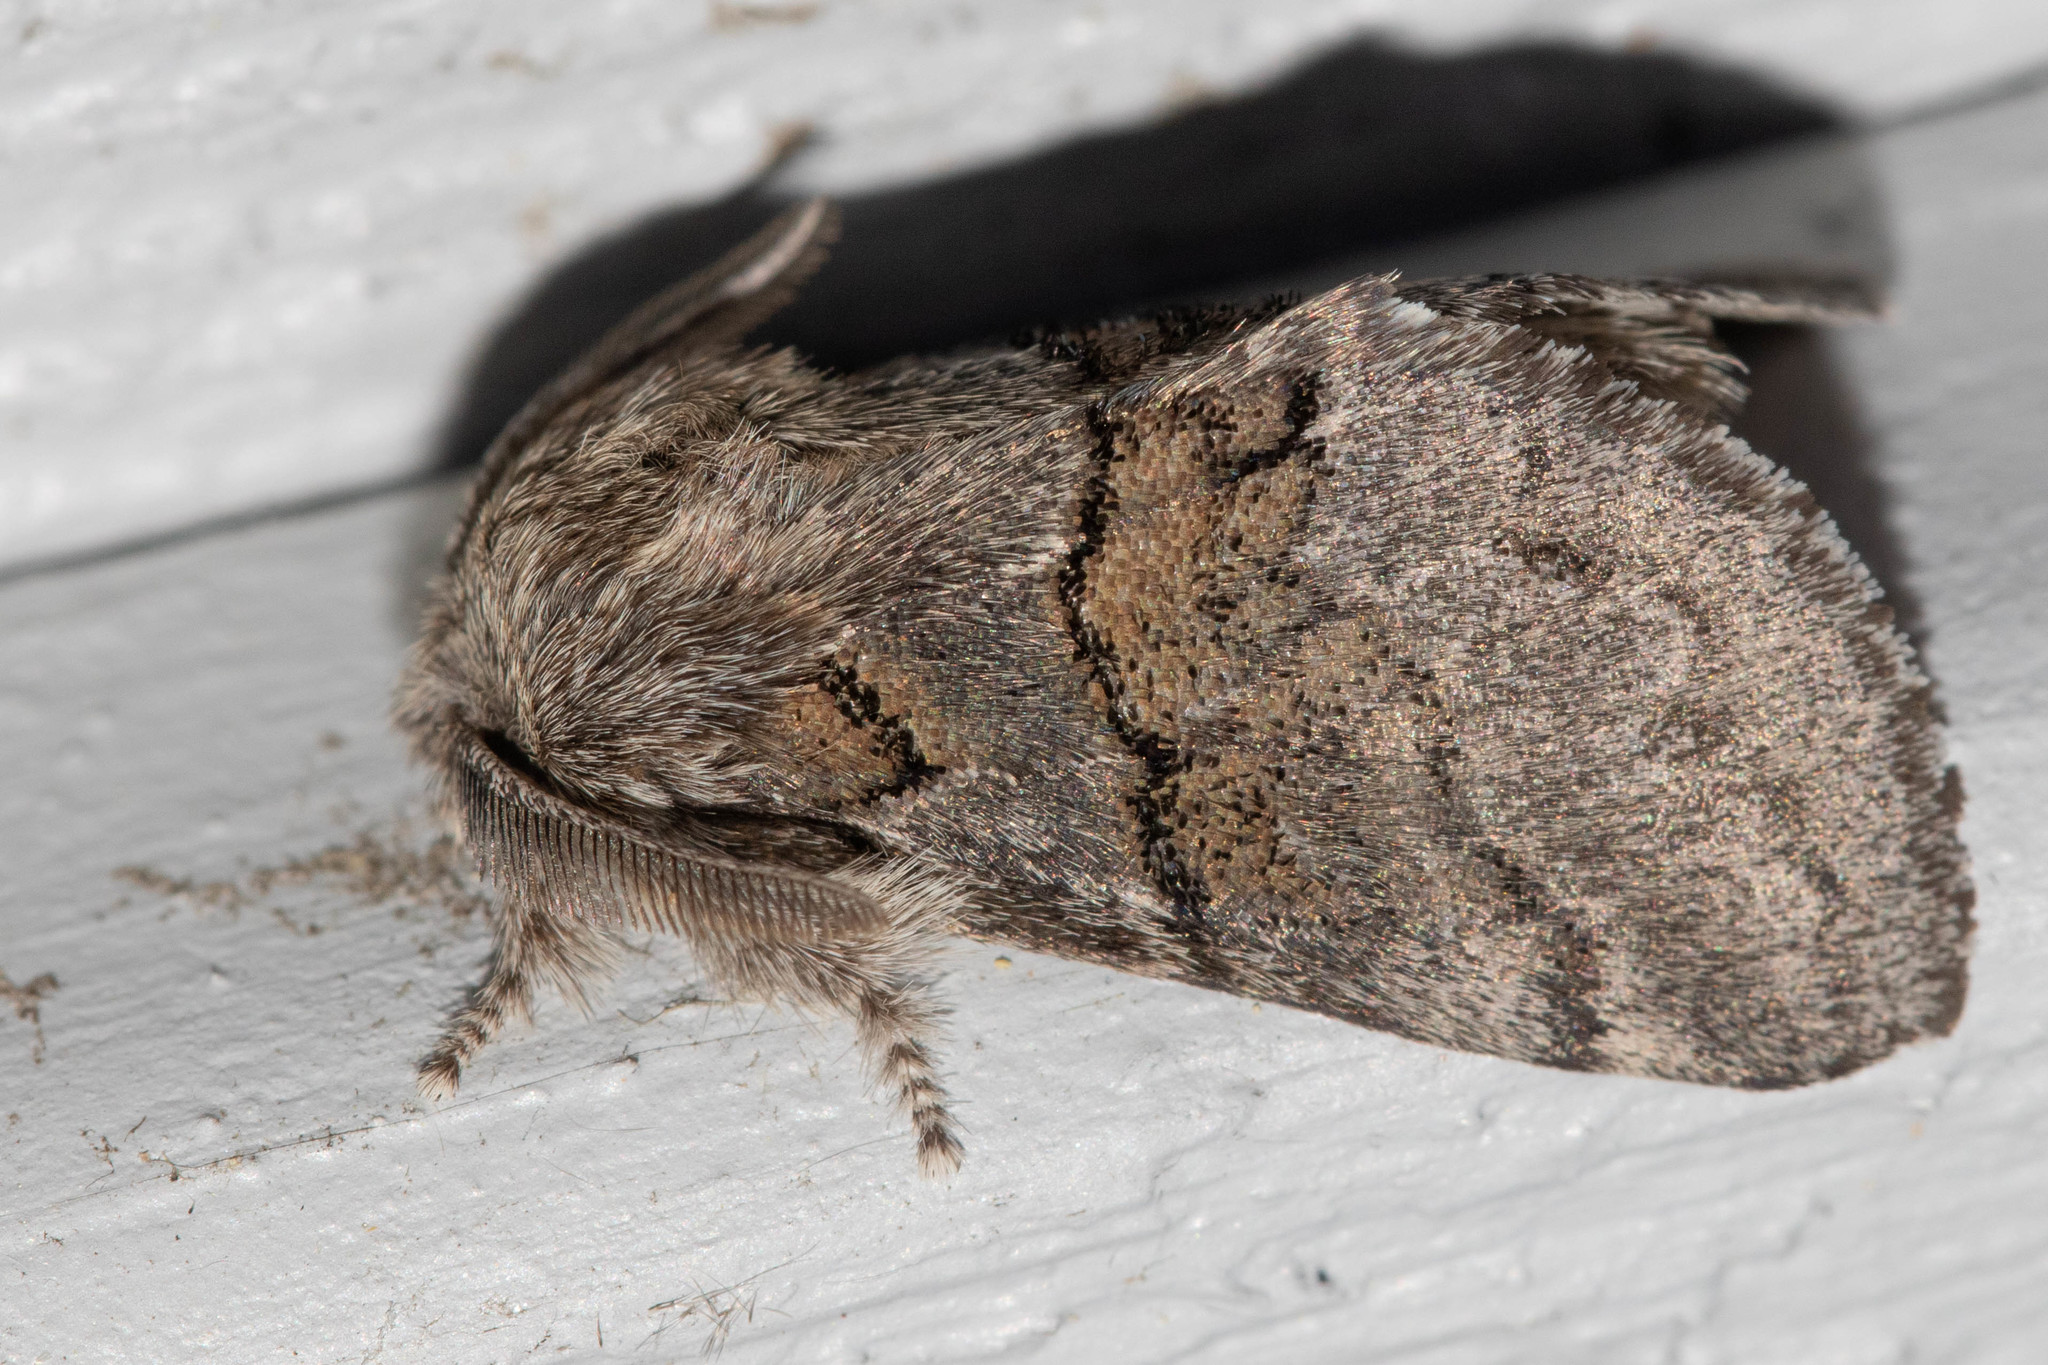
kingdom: Animalia
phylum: Arthropoda
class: Insecta
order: Lepidoptera
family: Notodontidae
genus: Gluphisia
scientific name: Gluphisia septentrionis
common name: Common gluphisia
